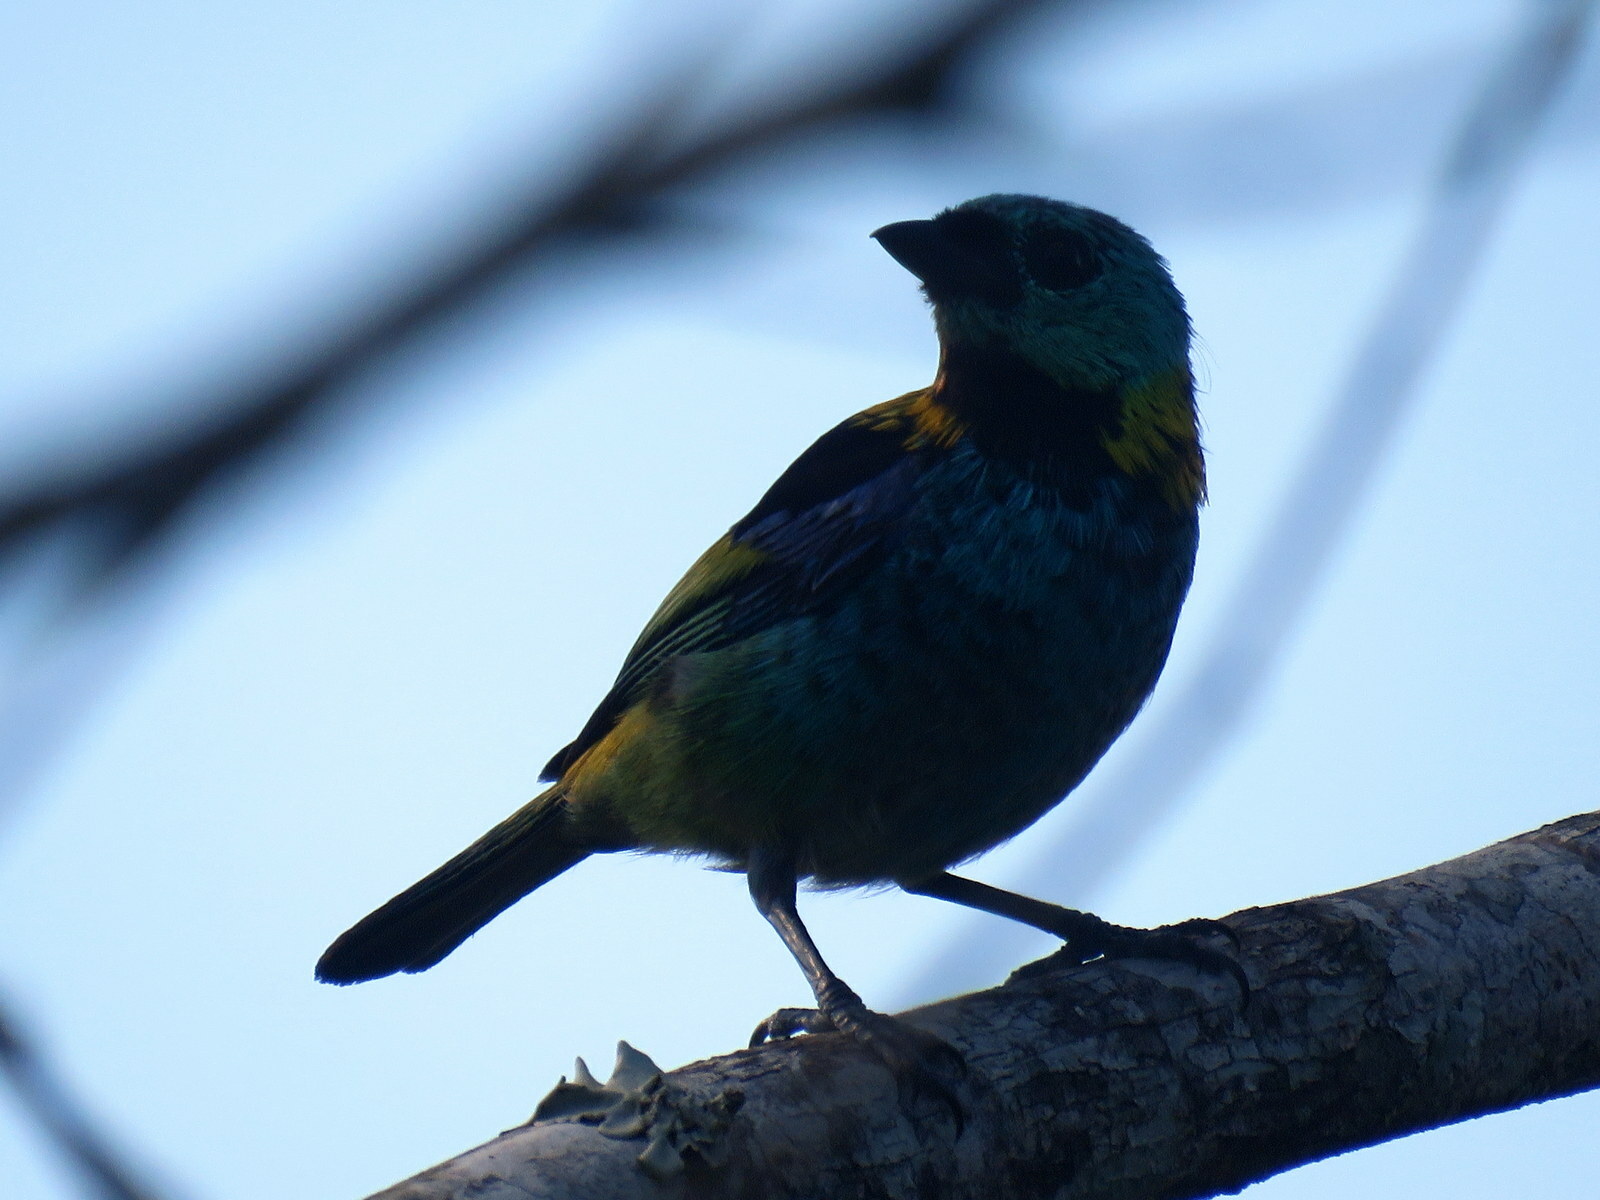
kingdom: Animalia
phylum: Chordata
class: Aves
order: Passeriformes
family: Thraupidae
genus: Tangara
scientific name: Tangara seledon
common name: Green-headed tanager
